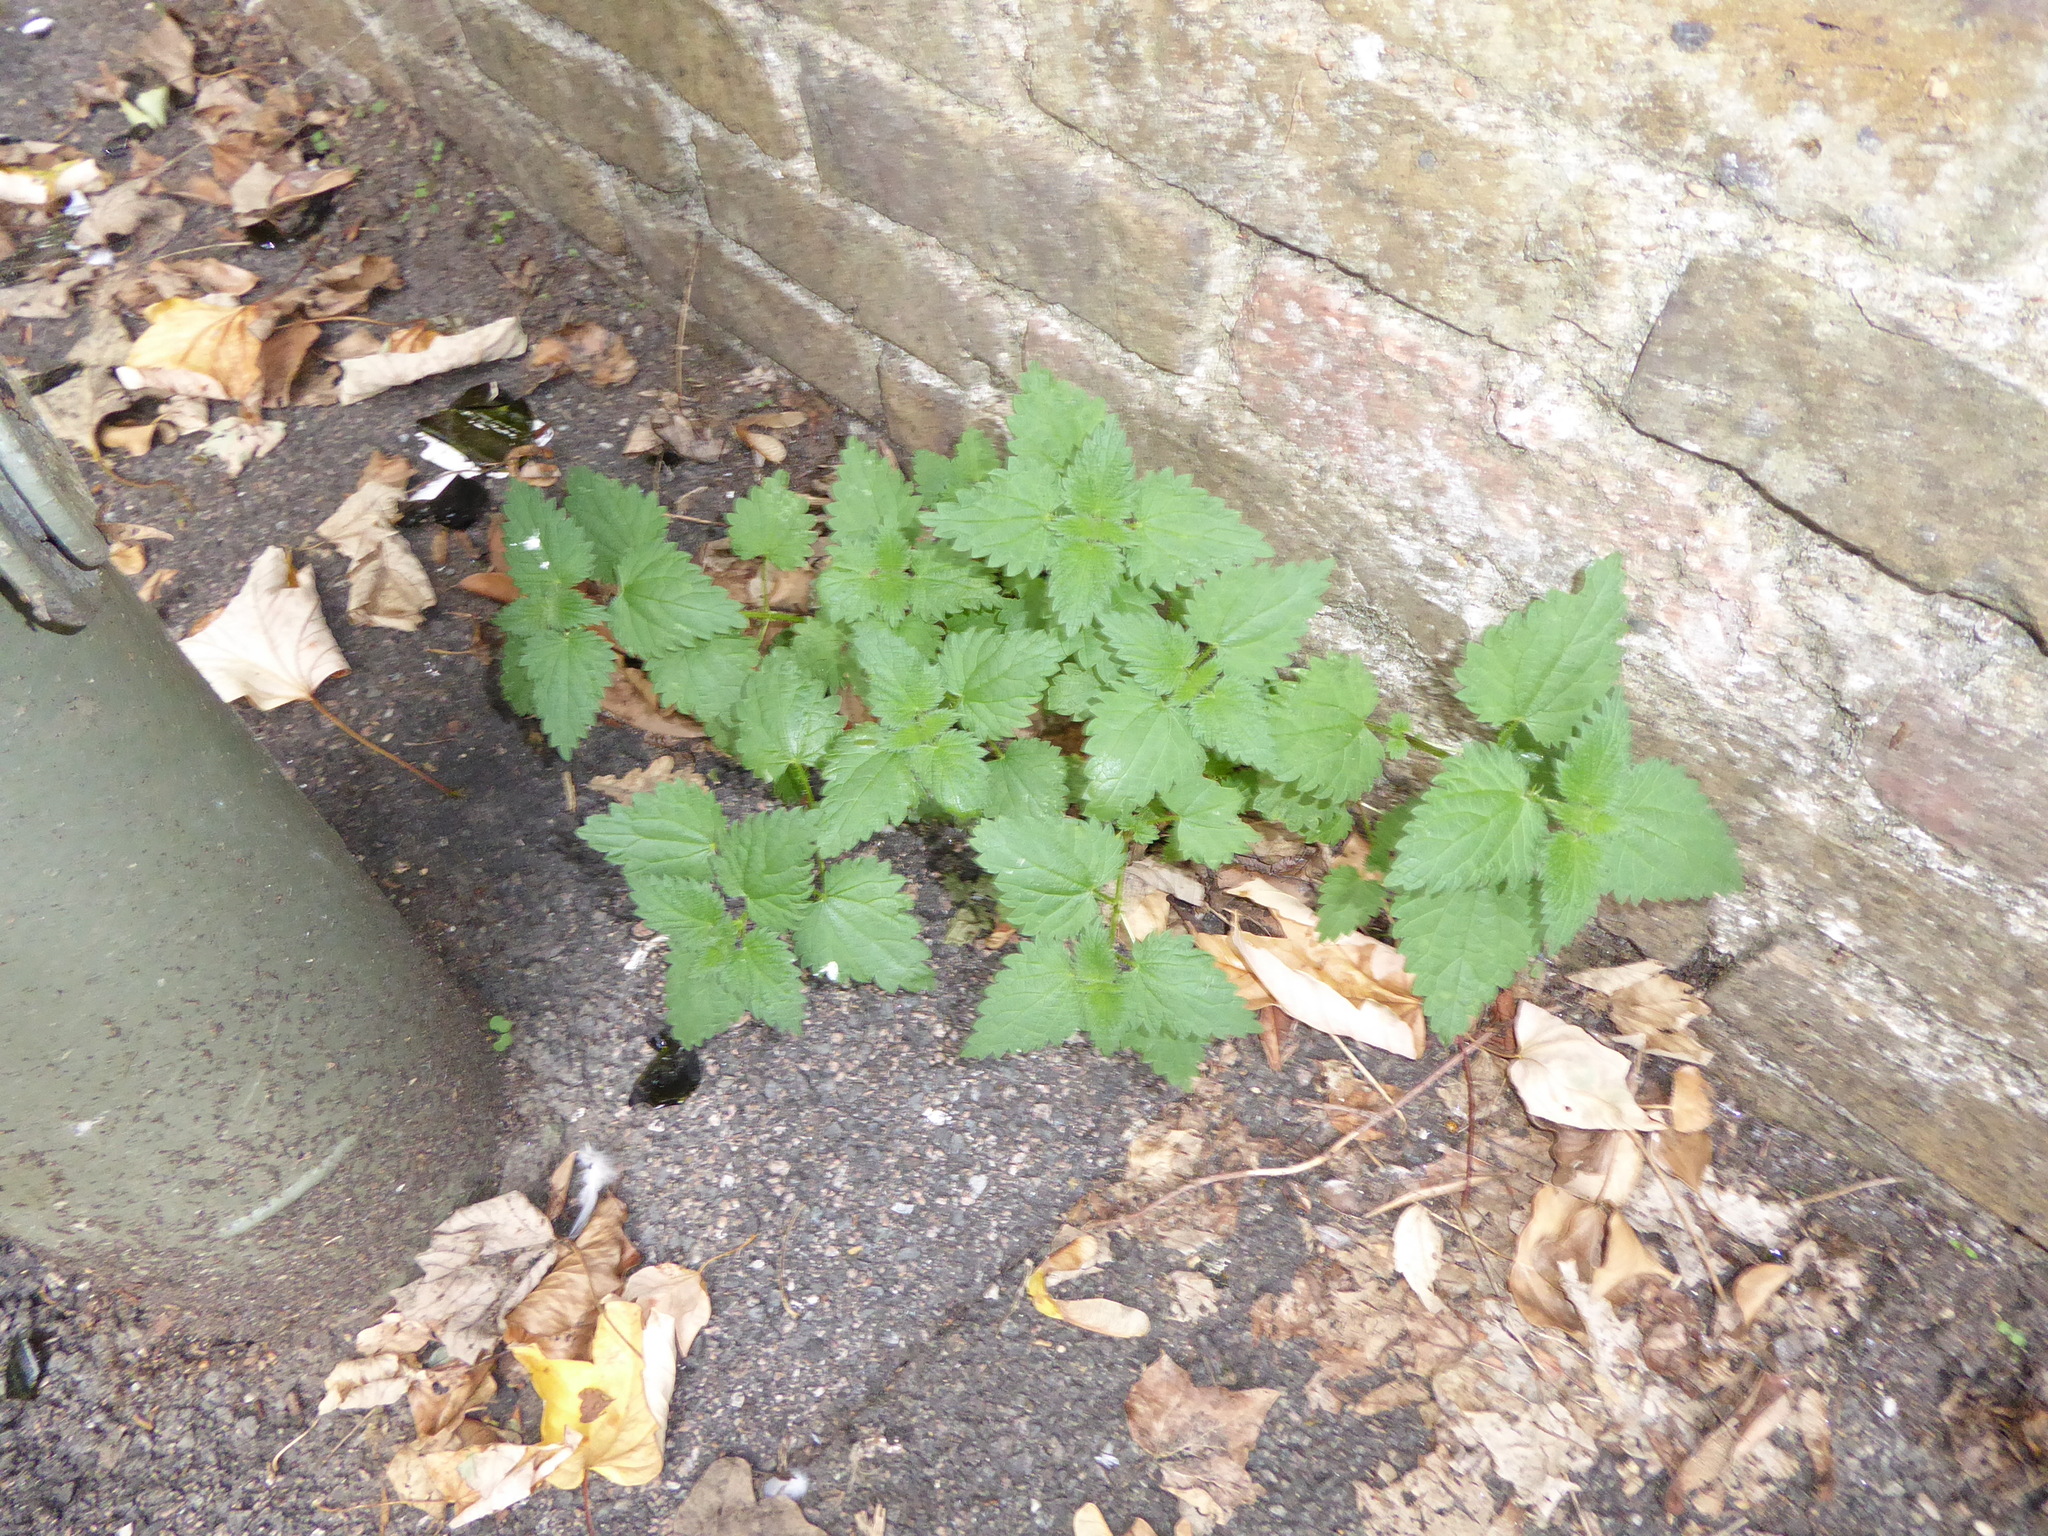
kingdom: Plantae
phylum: Tracheophyta
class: Magnoliopsida
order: Rosales
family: Urticaceae
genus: Urtica
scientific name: Urtica dioica
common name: Common nettle
